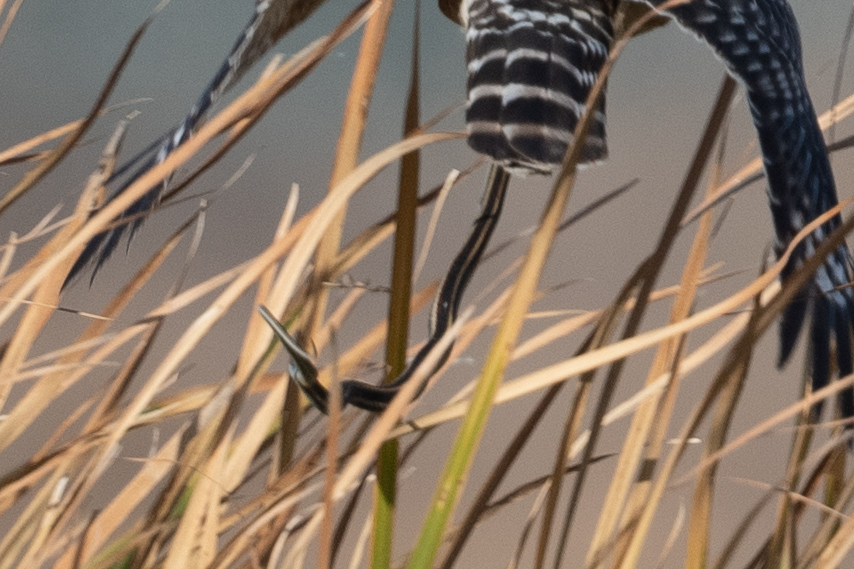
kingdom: Animalia
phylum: Chordata
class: Squamata
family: Colubridae
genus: Thamnophis
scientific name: Thamnophis sirtalis
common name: Common garter snake
